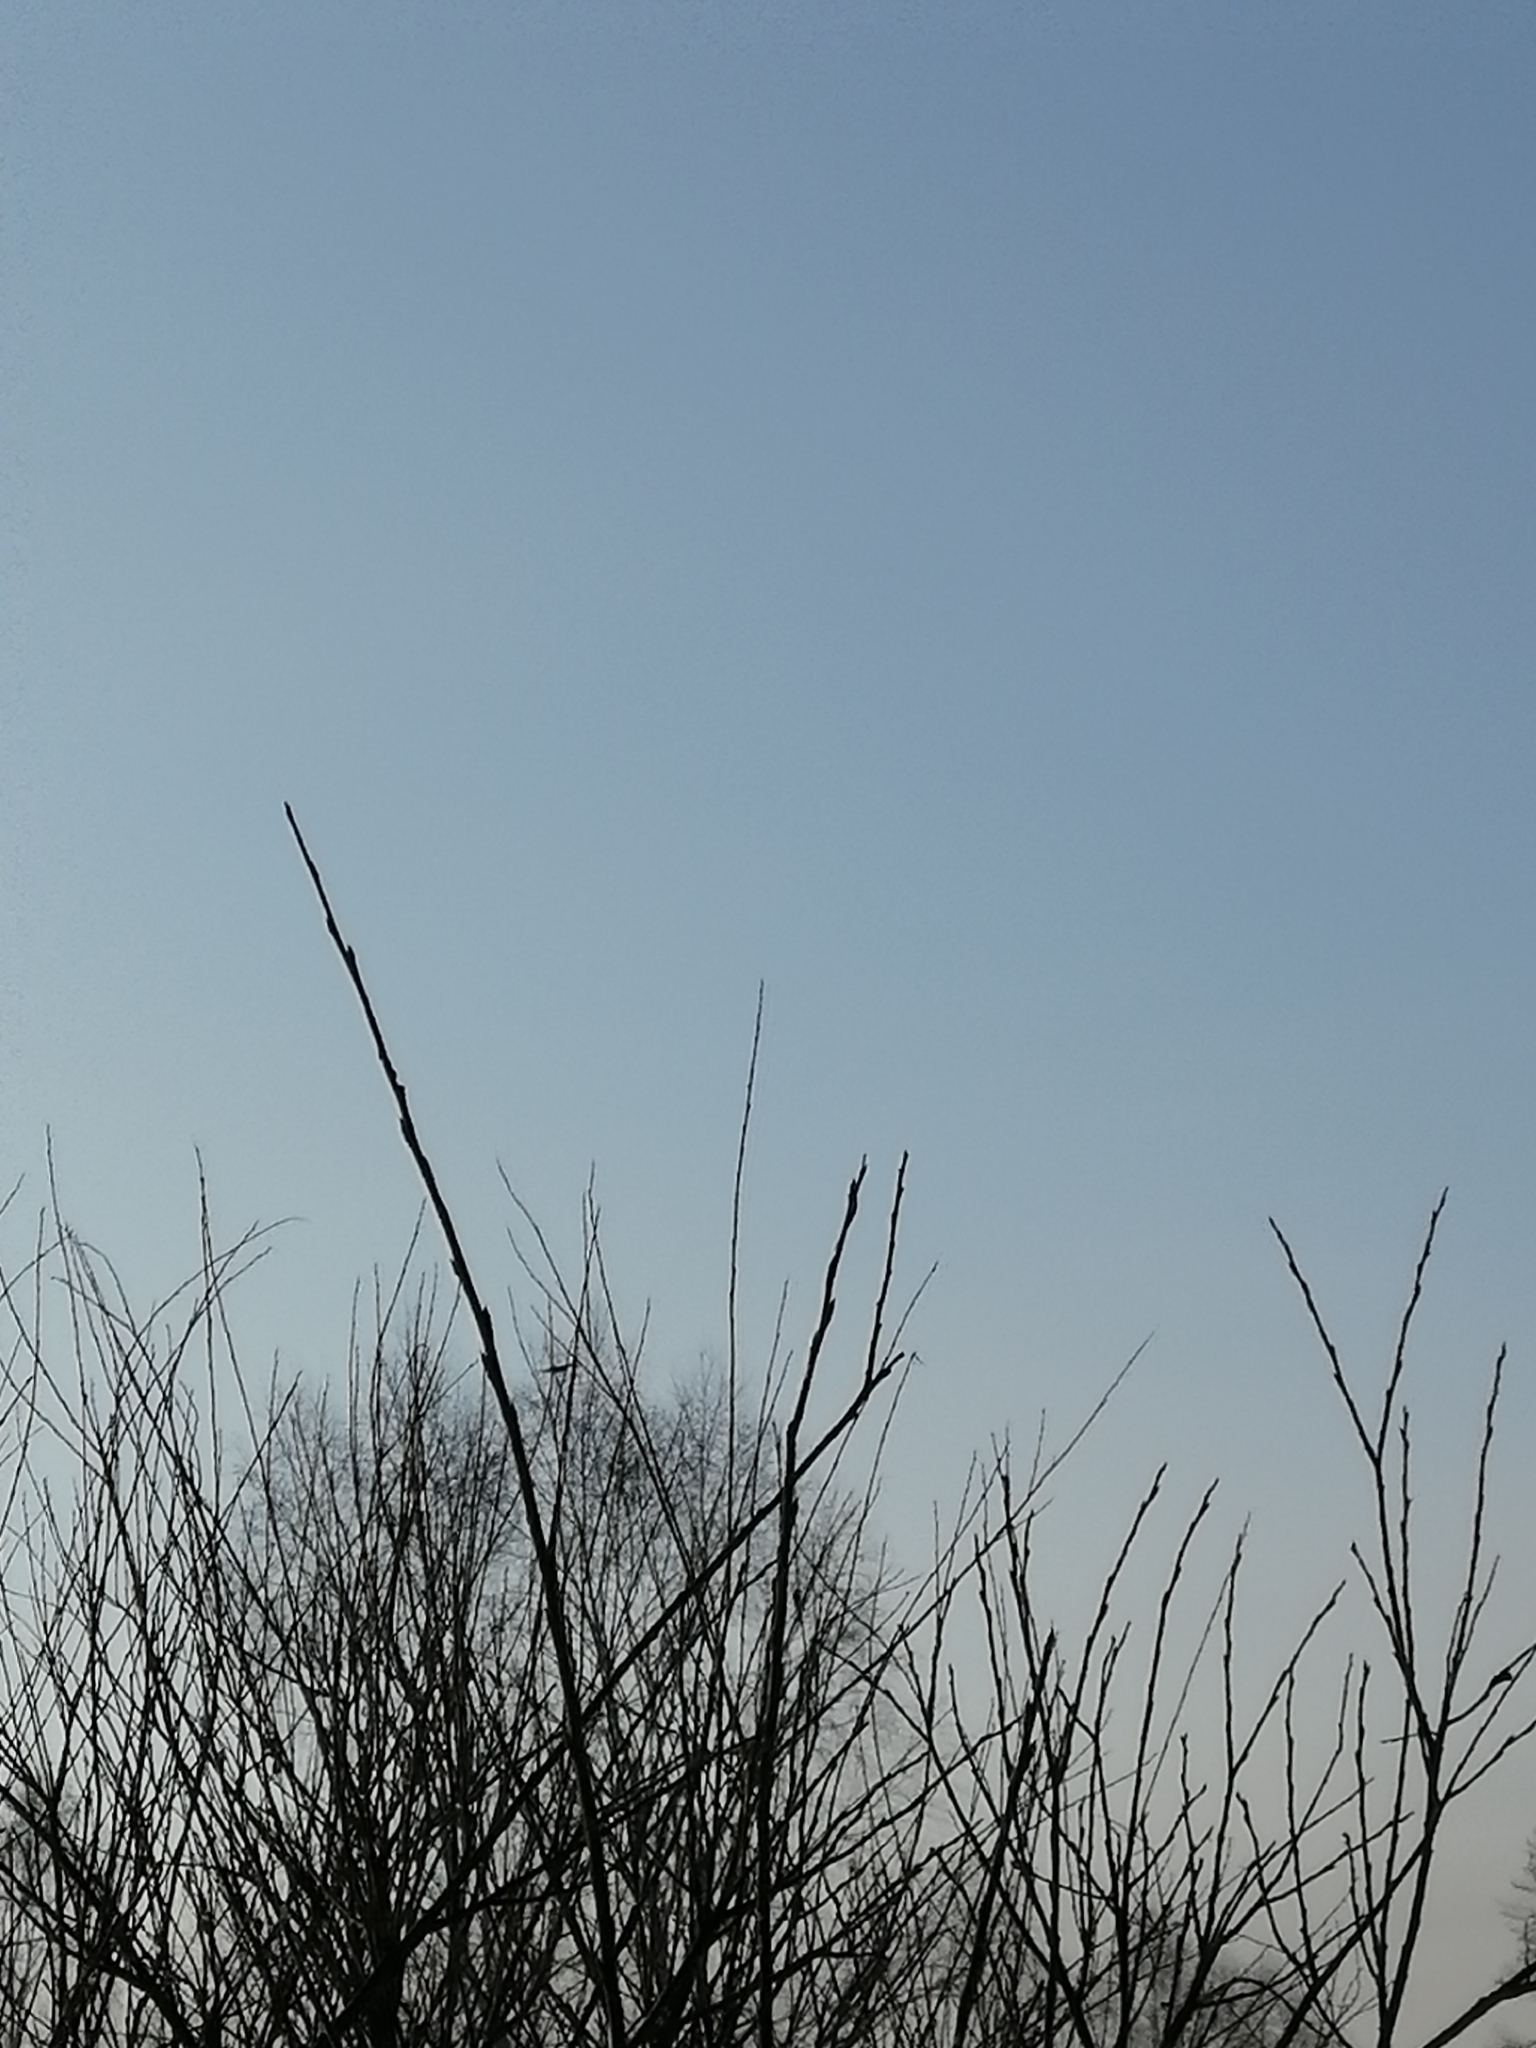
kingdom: Animalia
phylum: Chordata
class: Aves
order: Passeriformes
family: Corvidae
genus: Cyanopica
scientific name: Cyanopica cyanus
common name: Azure-winged magpie
